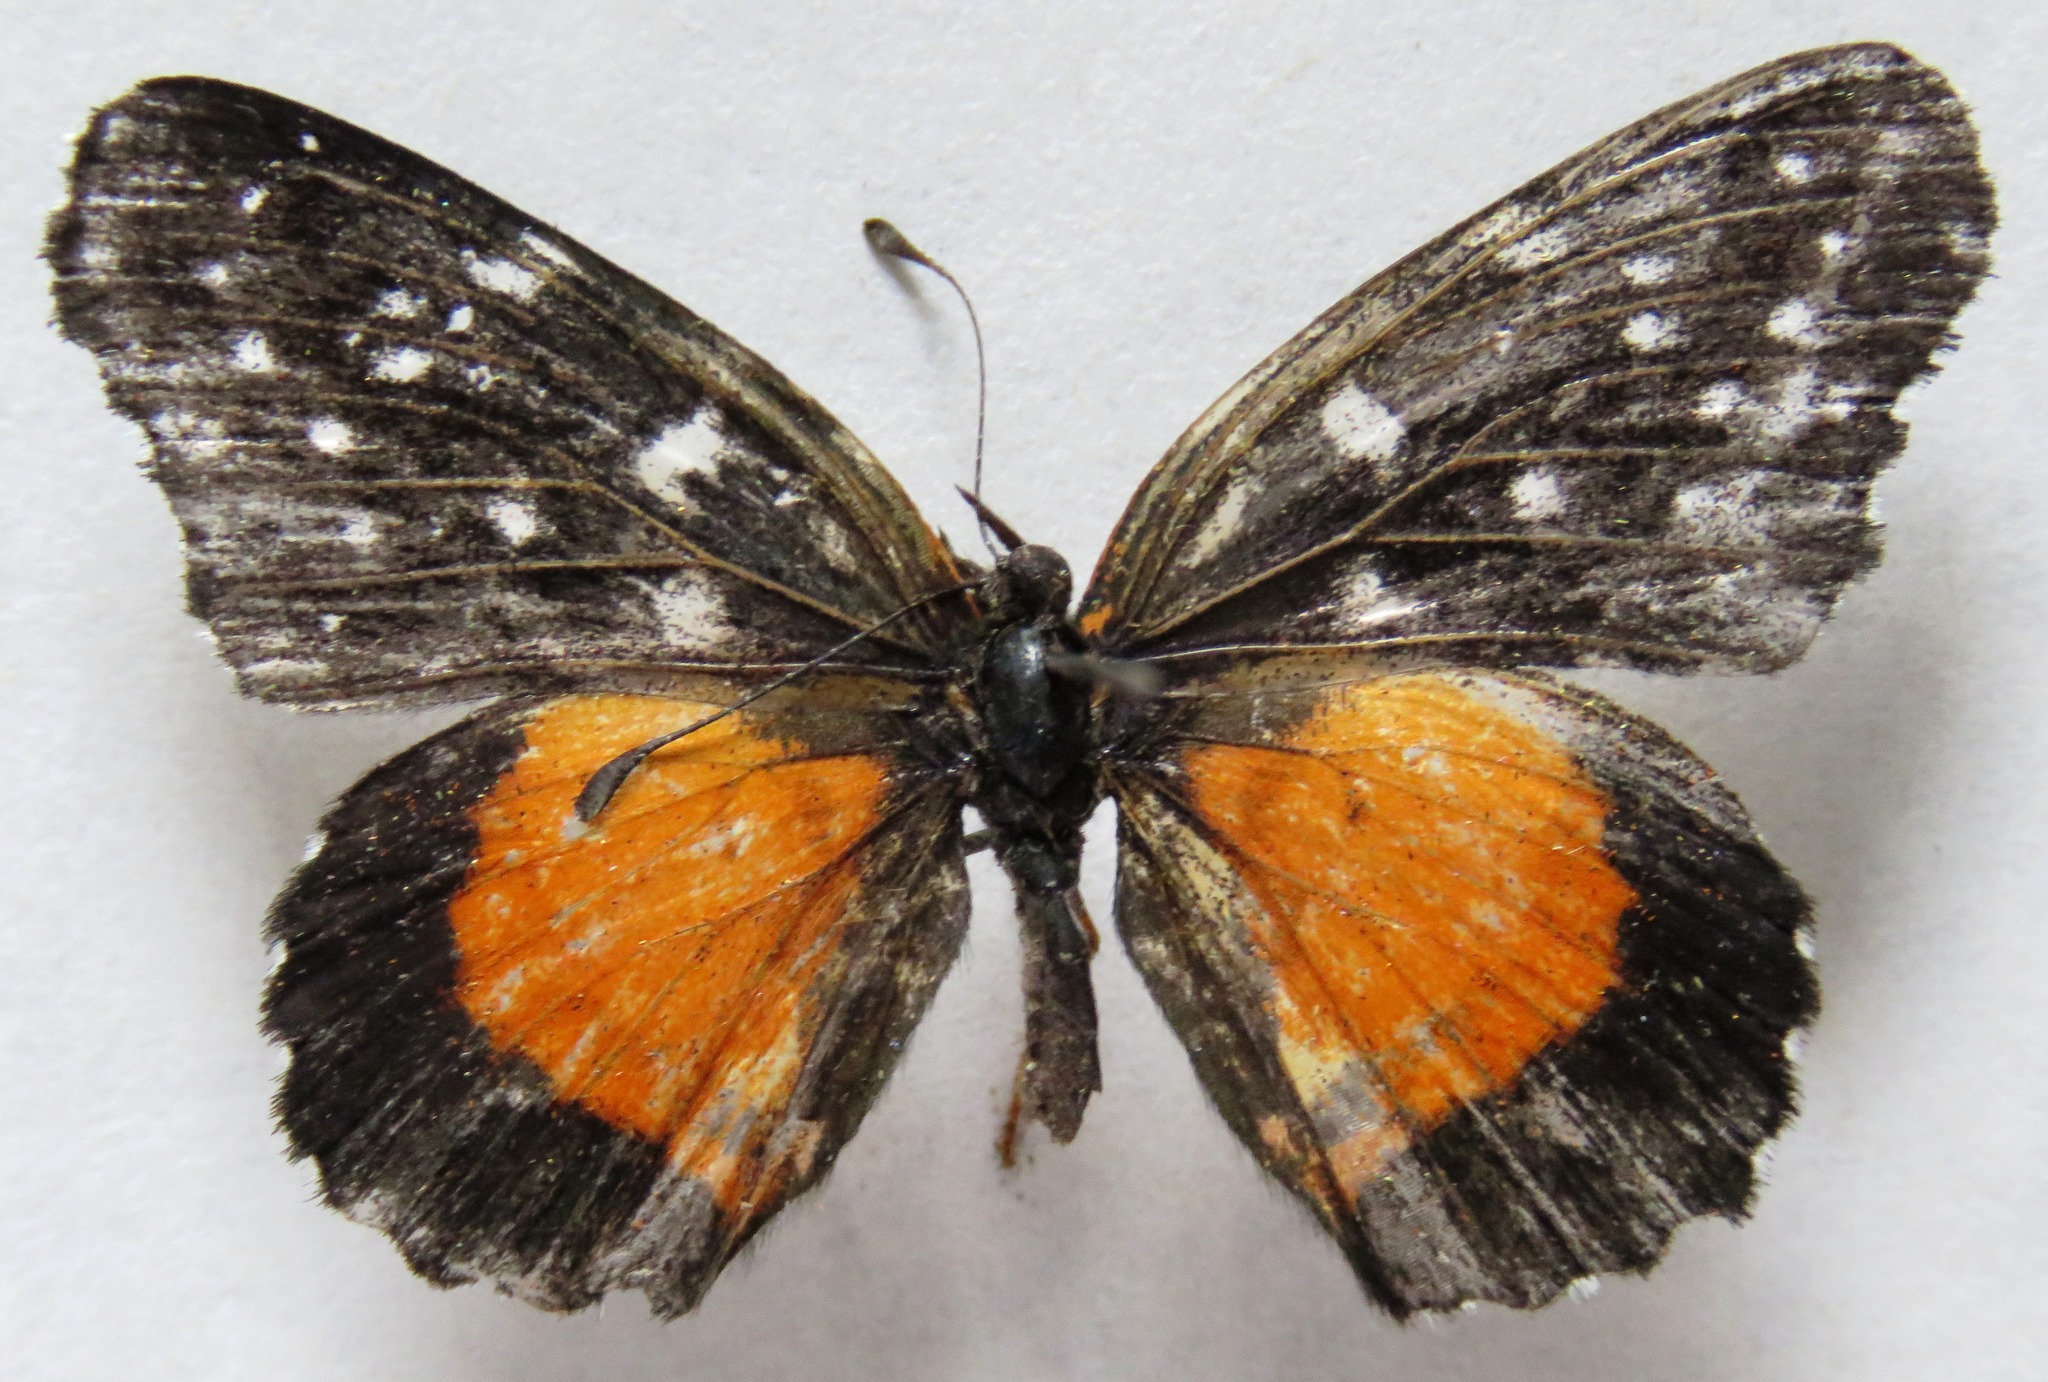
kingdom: Animalia
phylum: Arthropoda
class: Insecta
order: Lepidoptera
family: Nymphalidae
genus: Chlosyne
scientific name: Chlosyne lacinia
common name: Bordered patch
